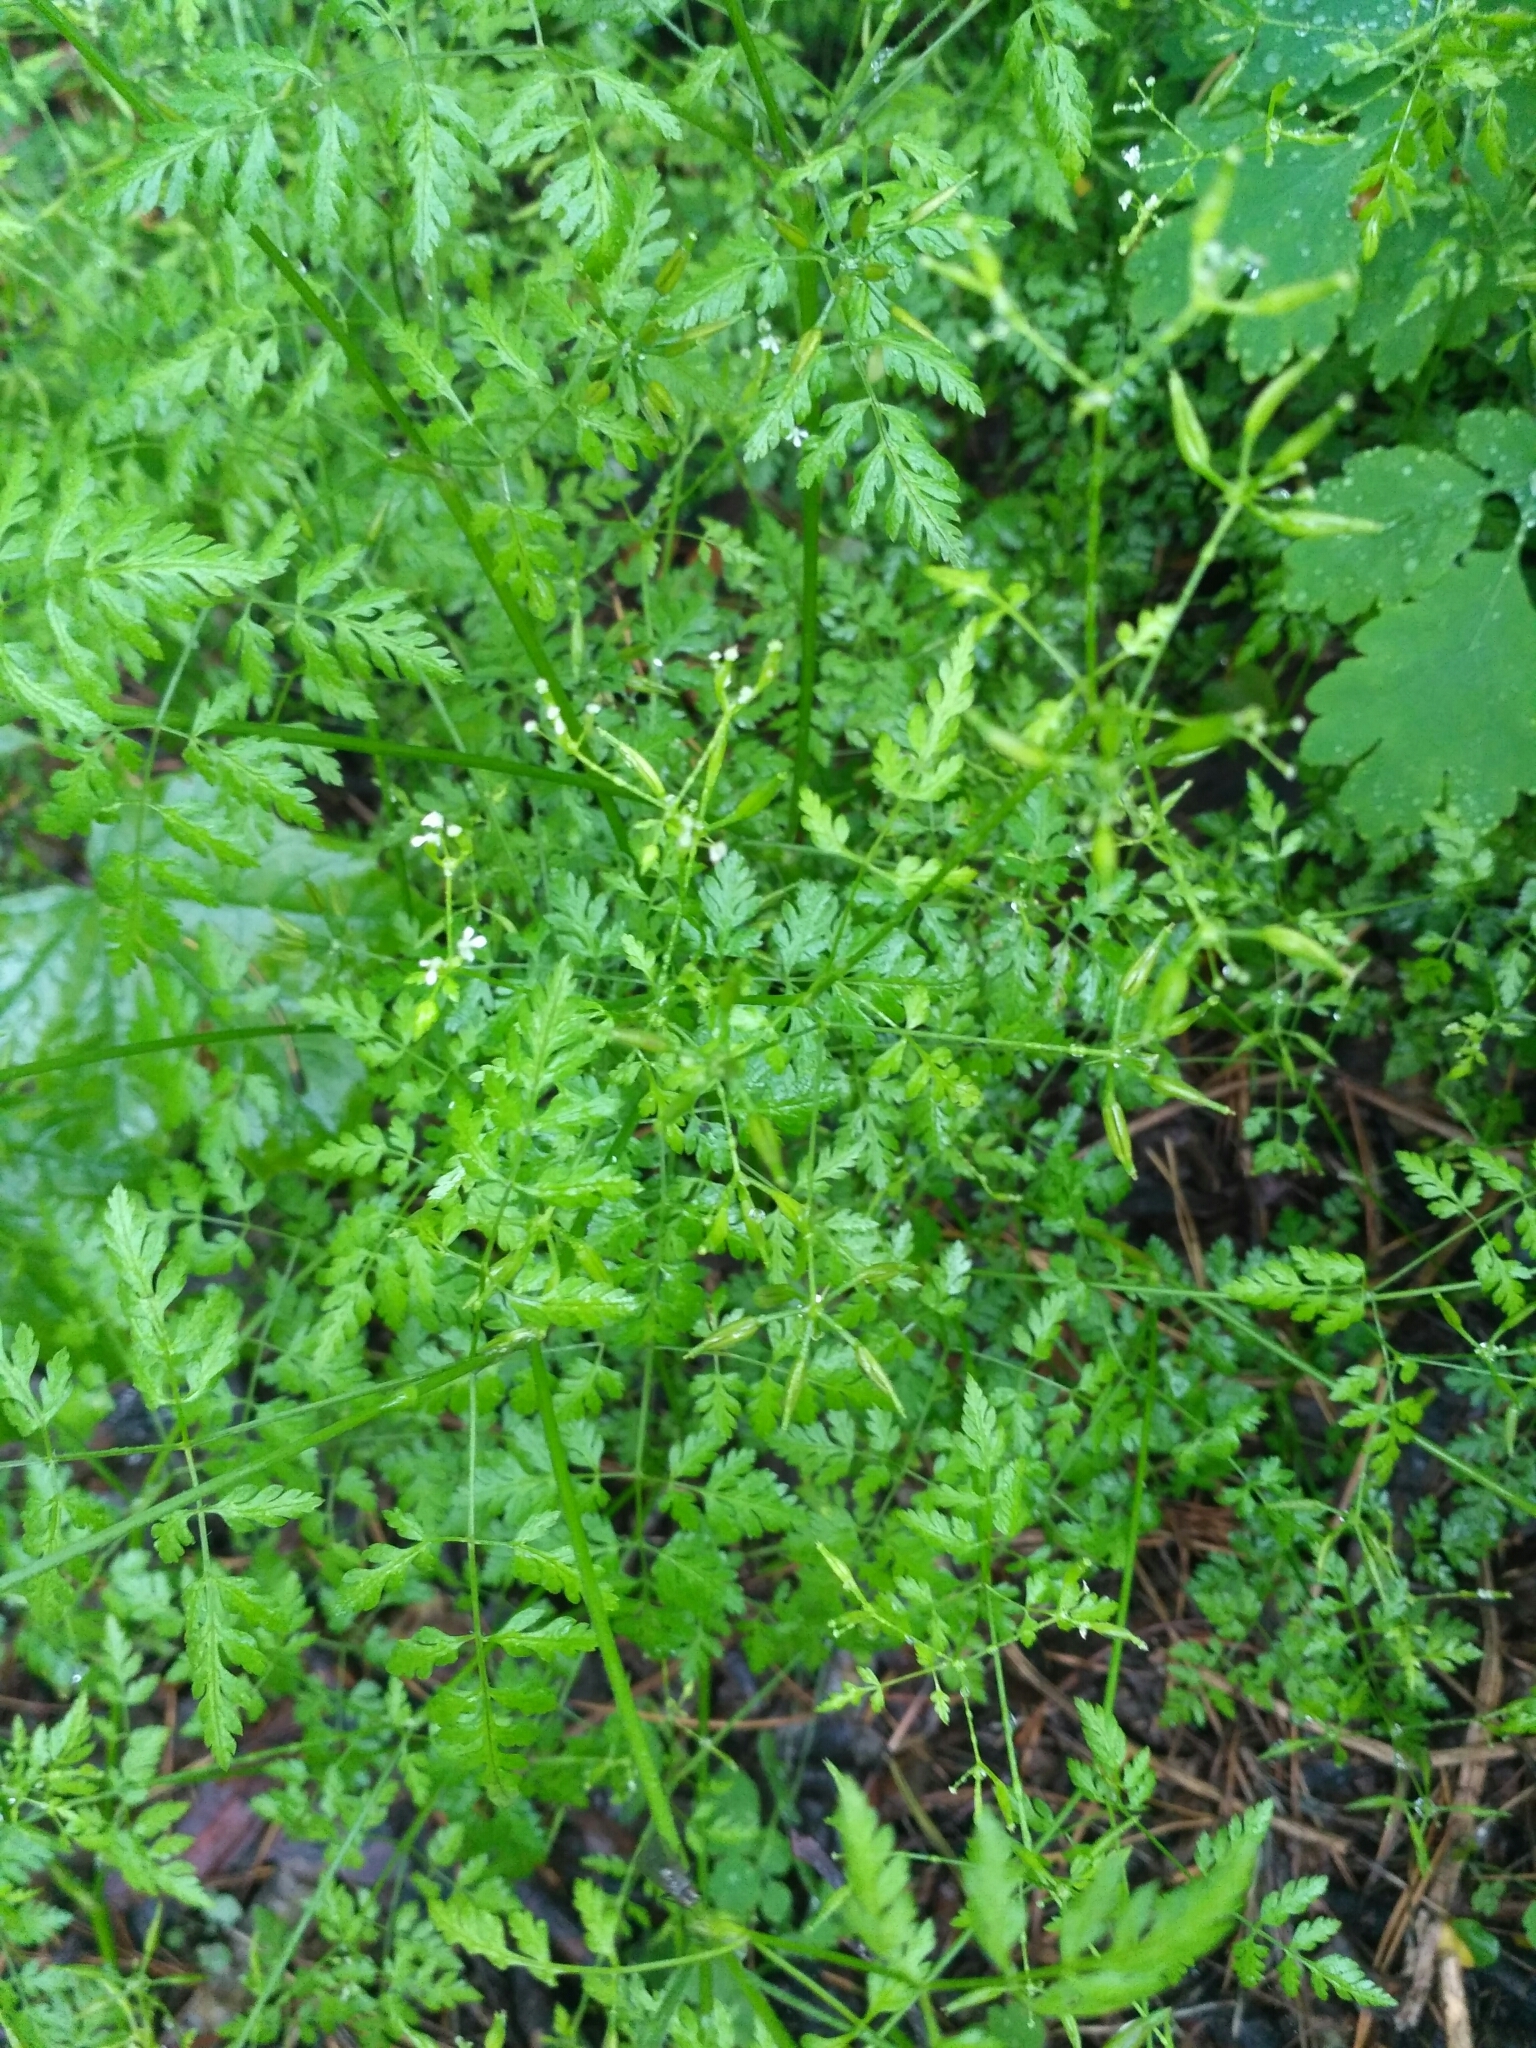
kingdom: Plantae
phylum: Tracheophyta
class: Magnoliopsida
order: Apiales
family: Apiaceae
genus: Anthriscus
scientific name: Anthriscus cerefolium
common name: Garden chervil
